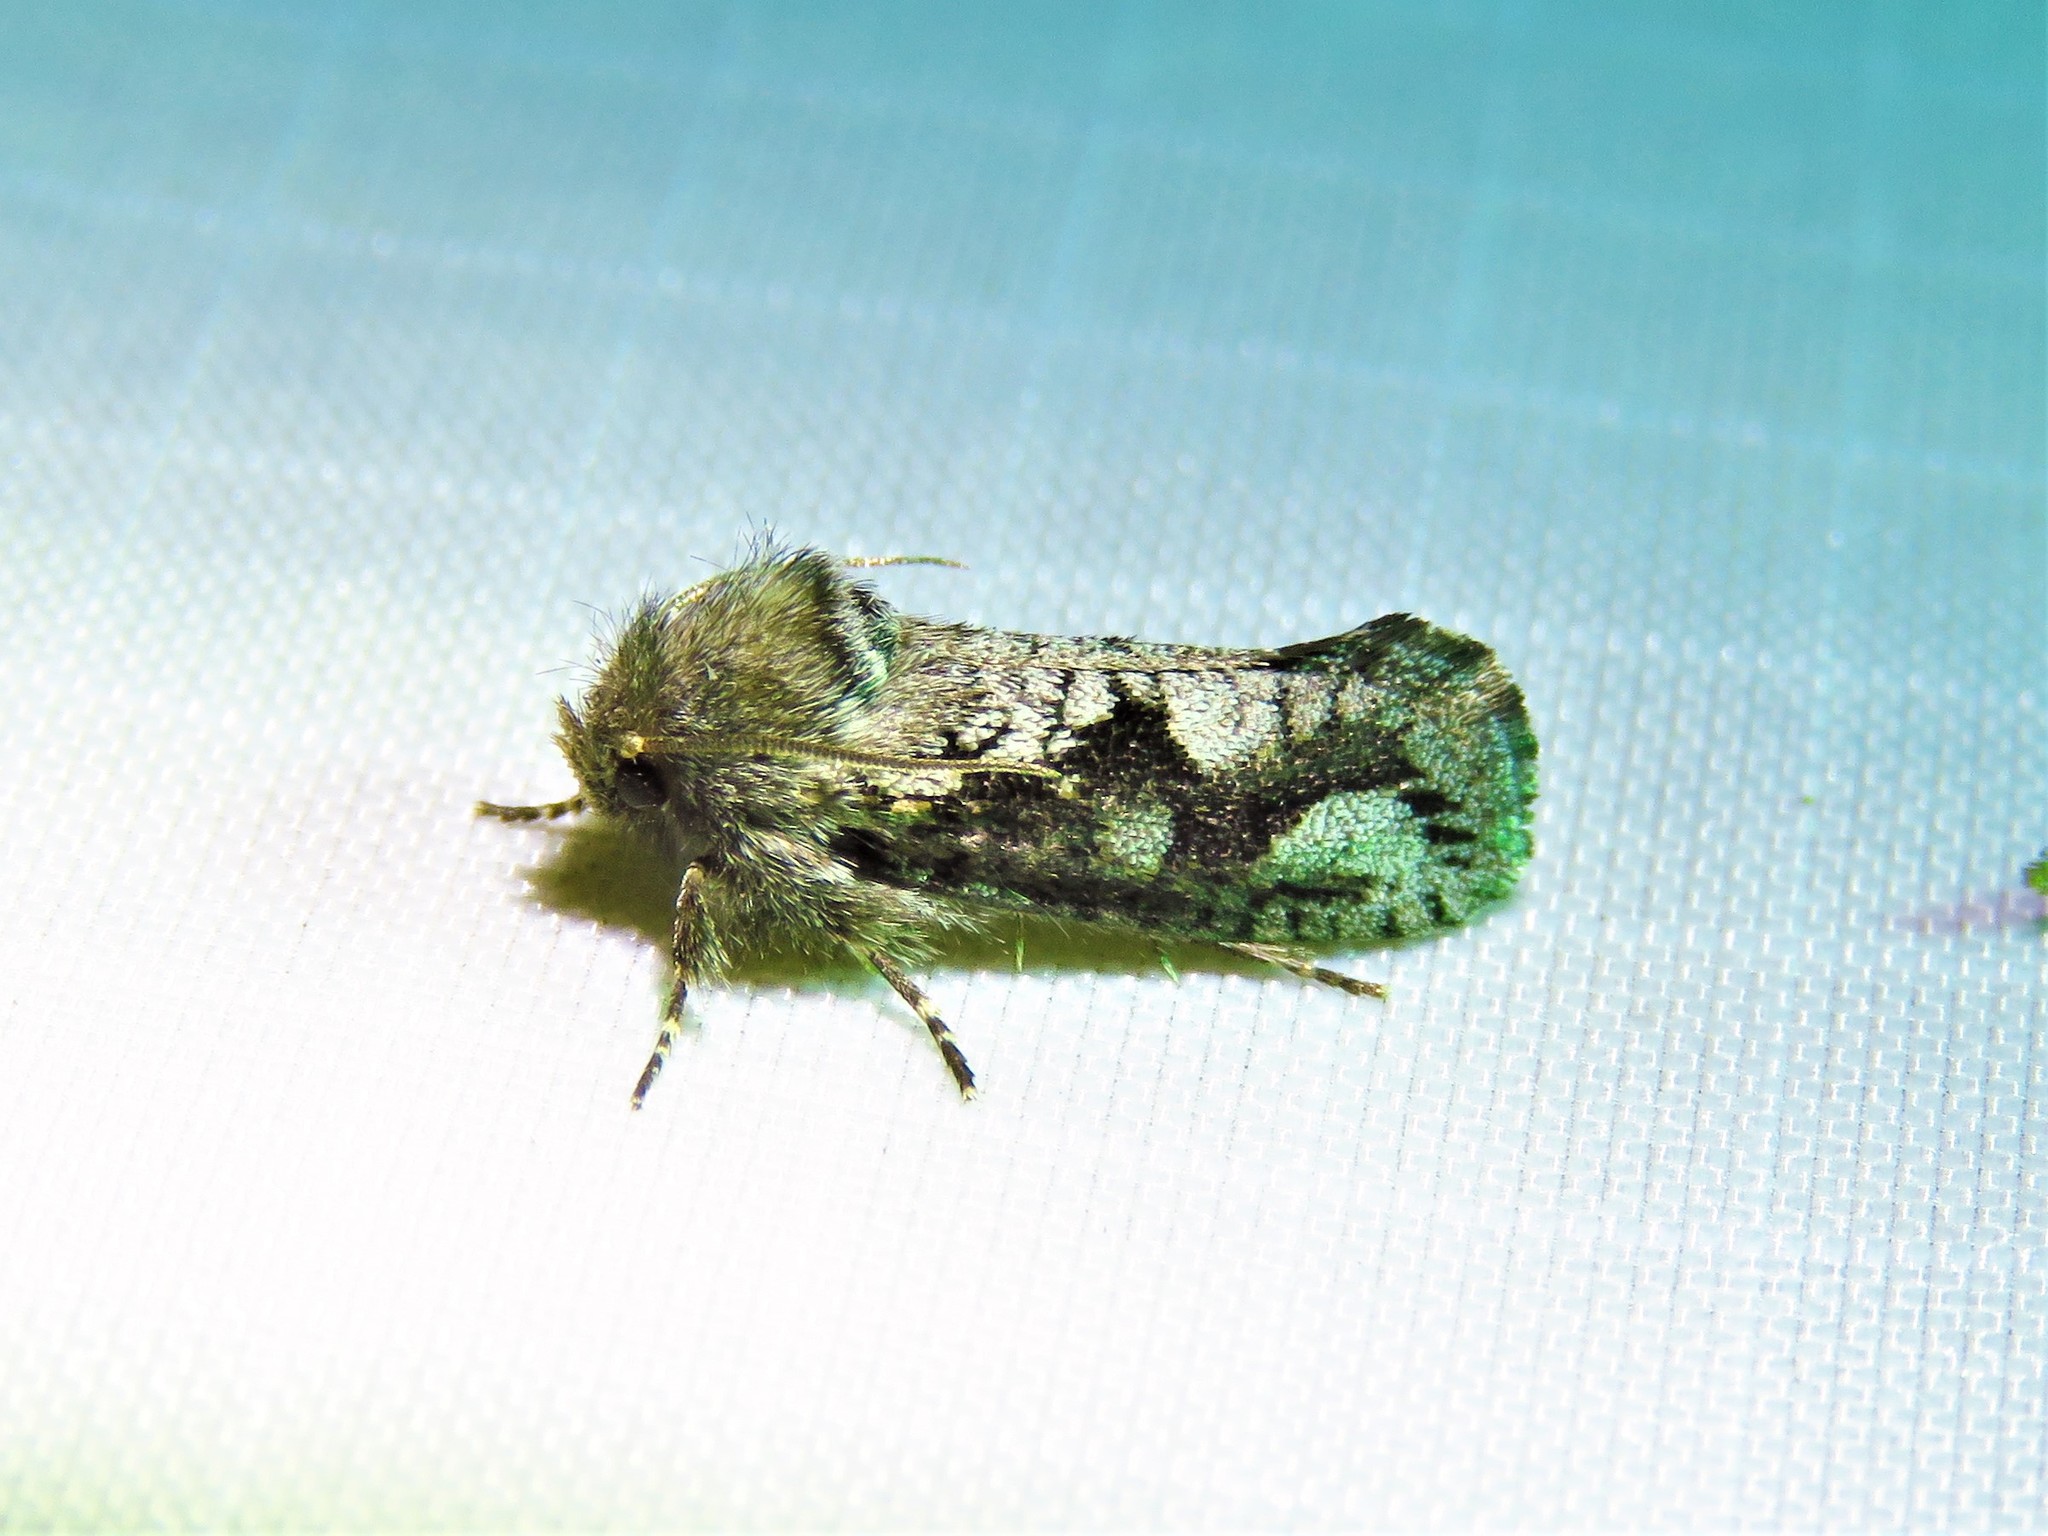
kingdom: Animalia
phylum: Arthropoda
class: Insecta
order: Lepidoptera
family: Tineidae
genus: Acrolophus
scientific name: Acrolophus
